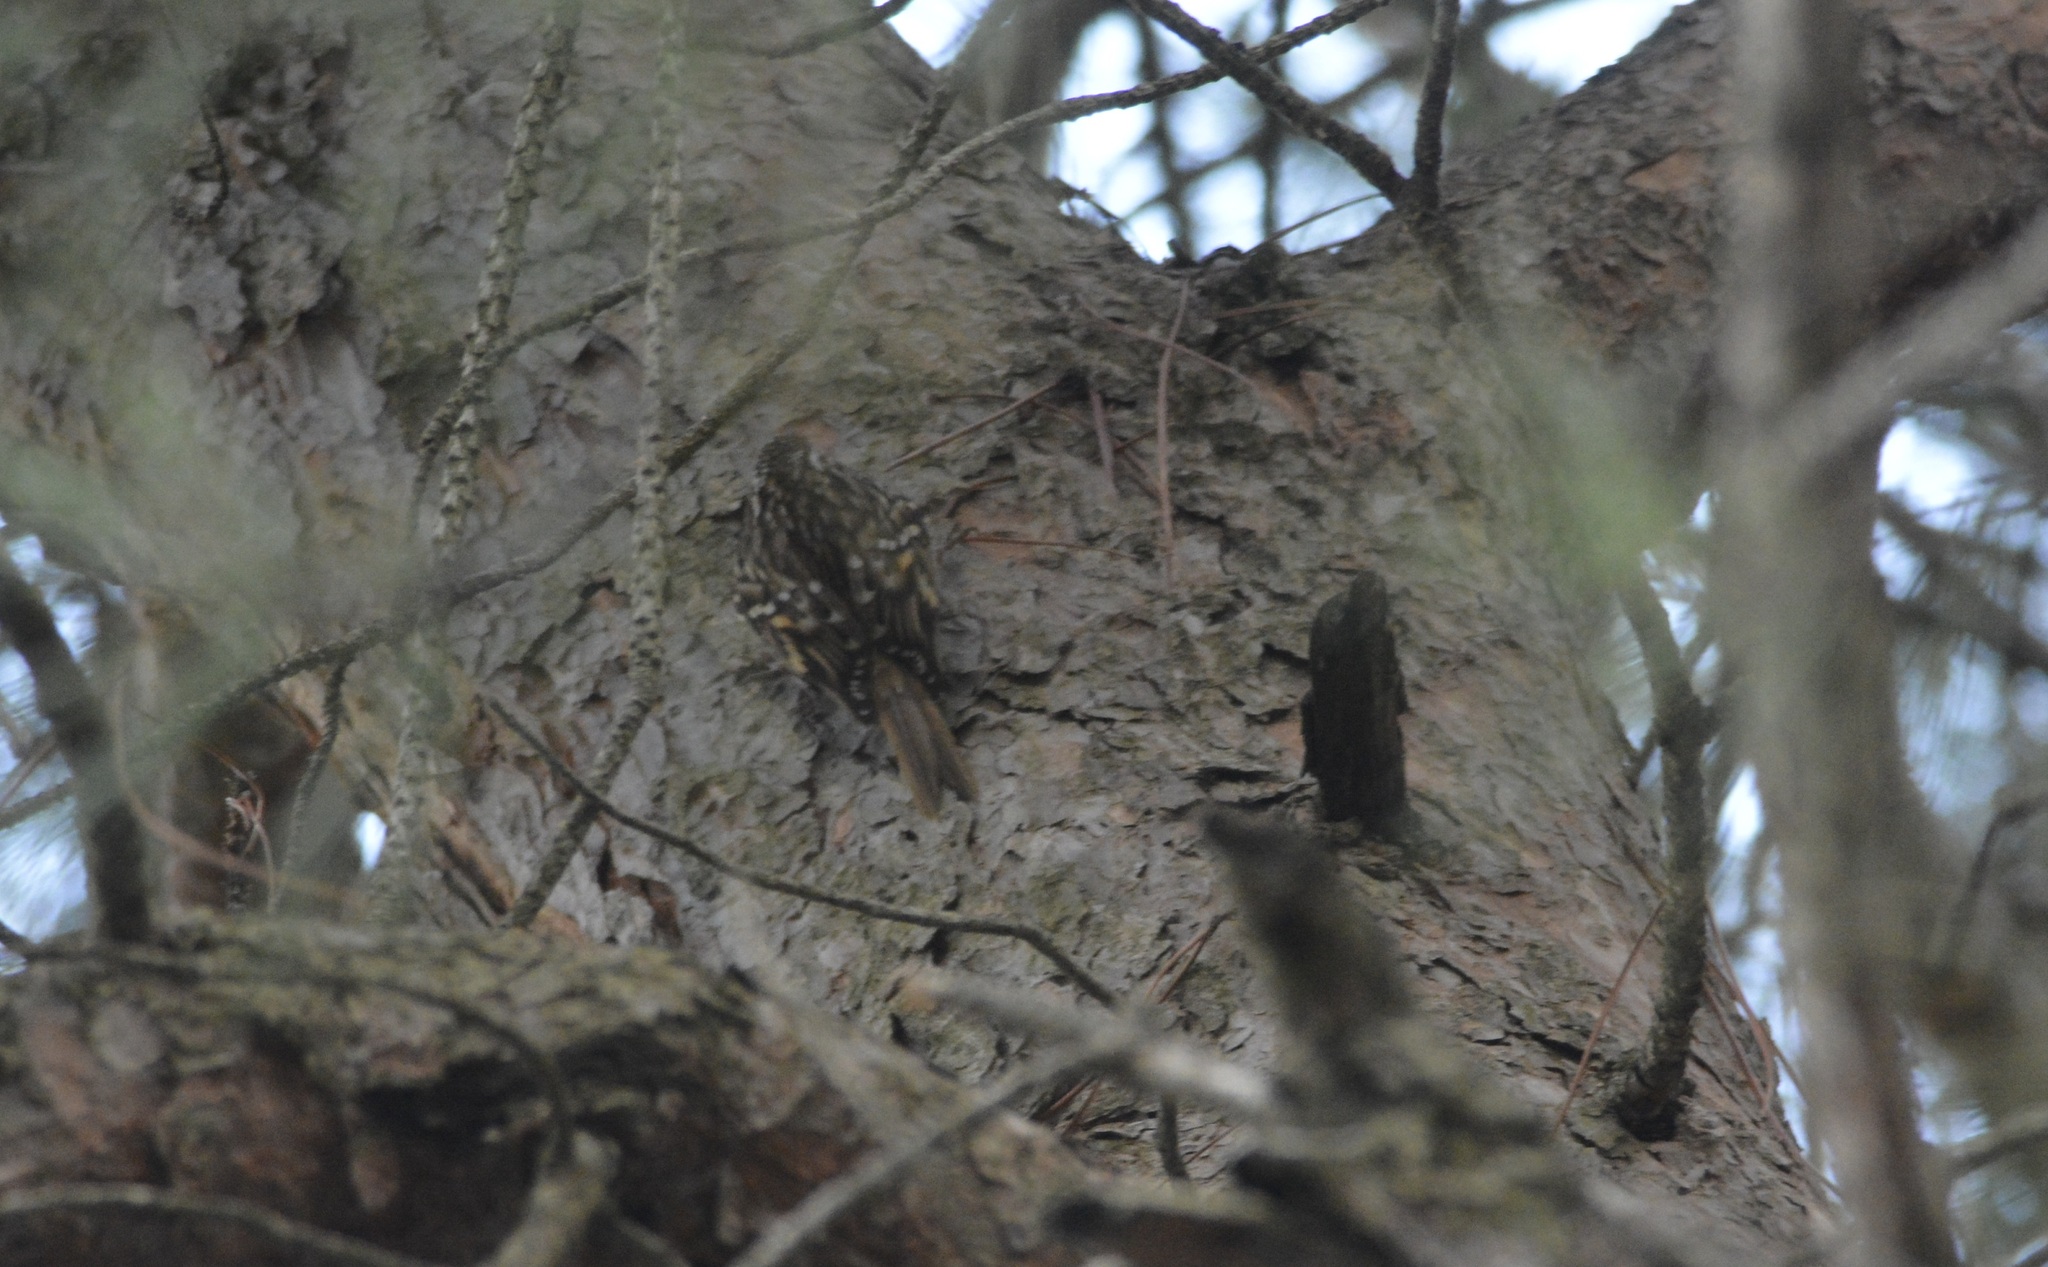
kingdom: Animalia
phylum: Chordata
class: Aves
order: Passeriformes
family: Certhiidae
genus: Certhia
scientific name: Certhia brachydactyla
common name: Short-toed treecreeper
